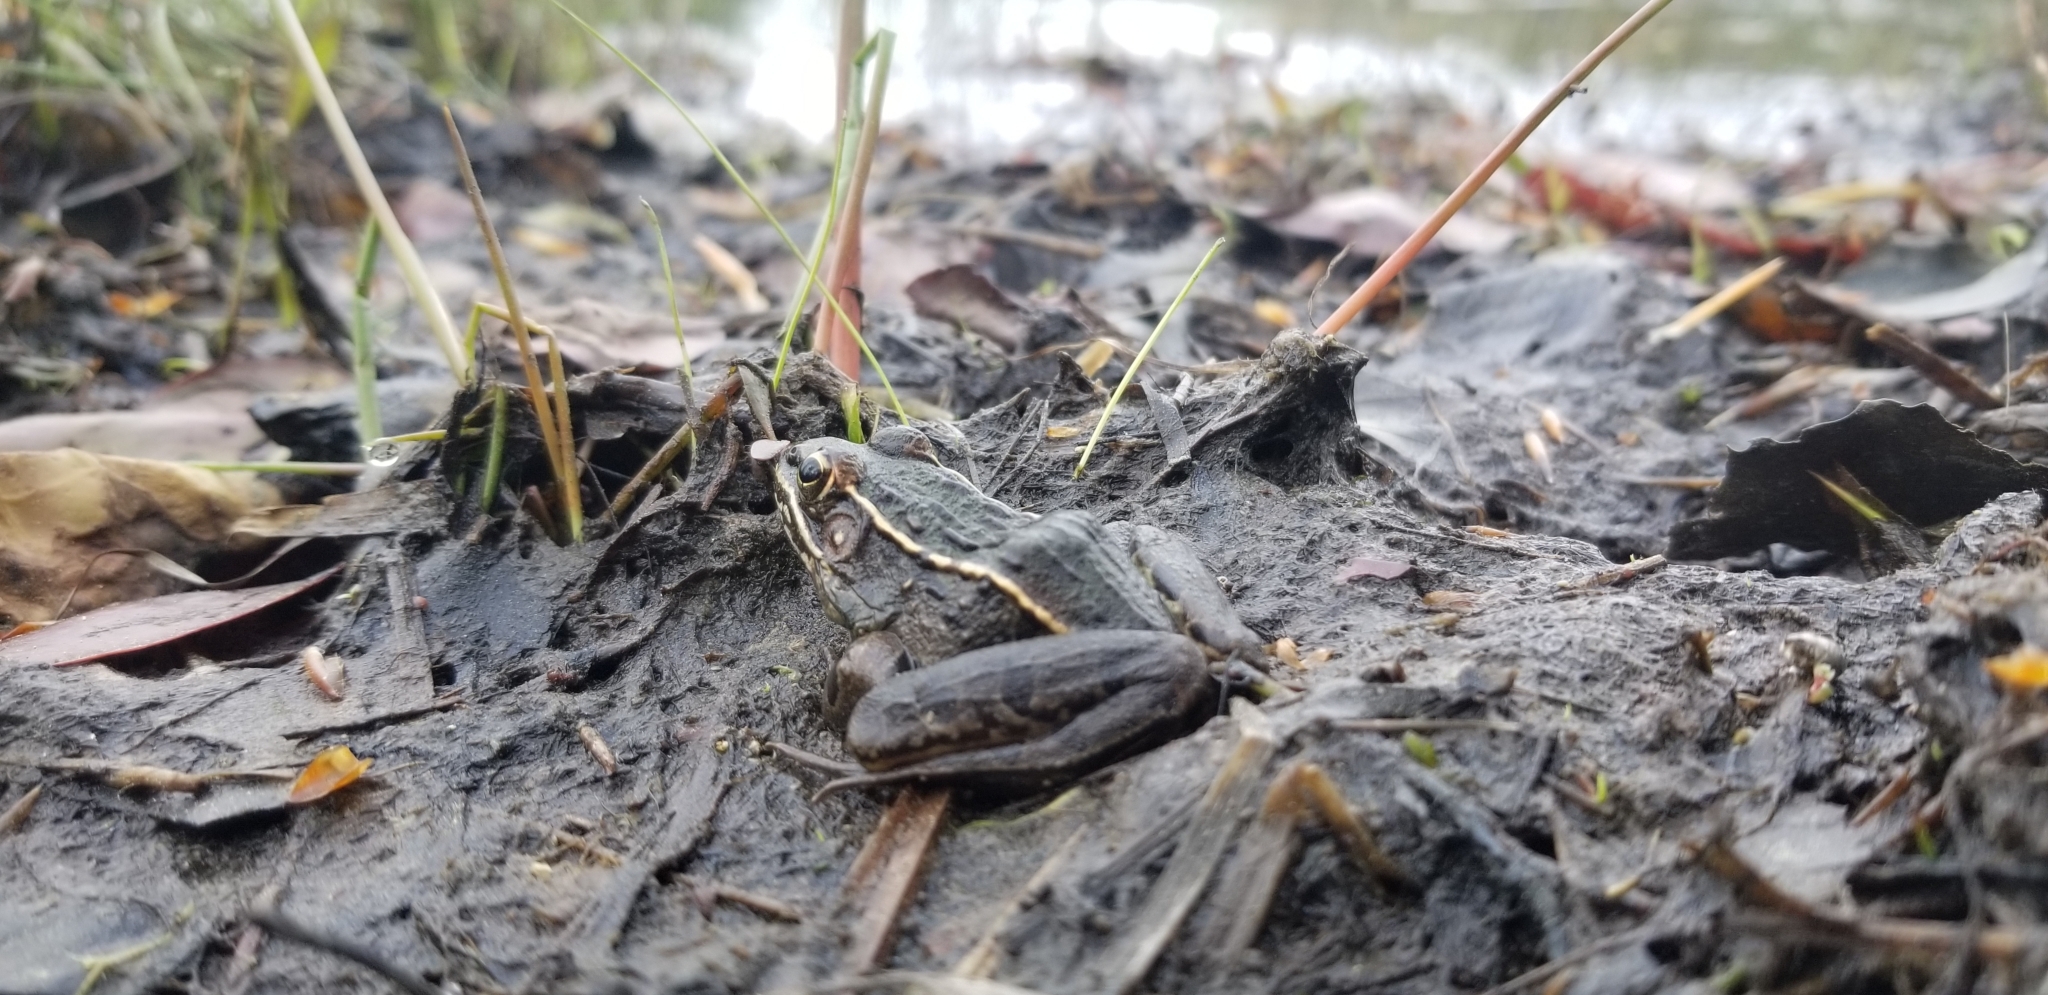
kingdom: Animalia
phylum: Chordata
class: Amphibia
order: Anura
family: Ranidae
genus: Lithobates
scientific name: Lithobates sphenocephalus
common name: Southern leopard frog
